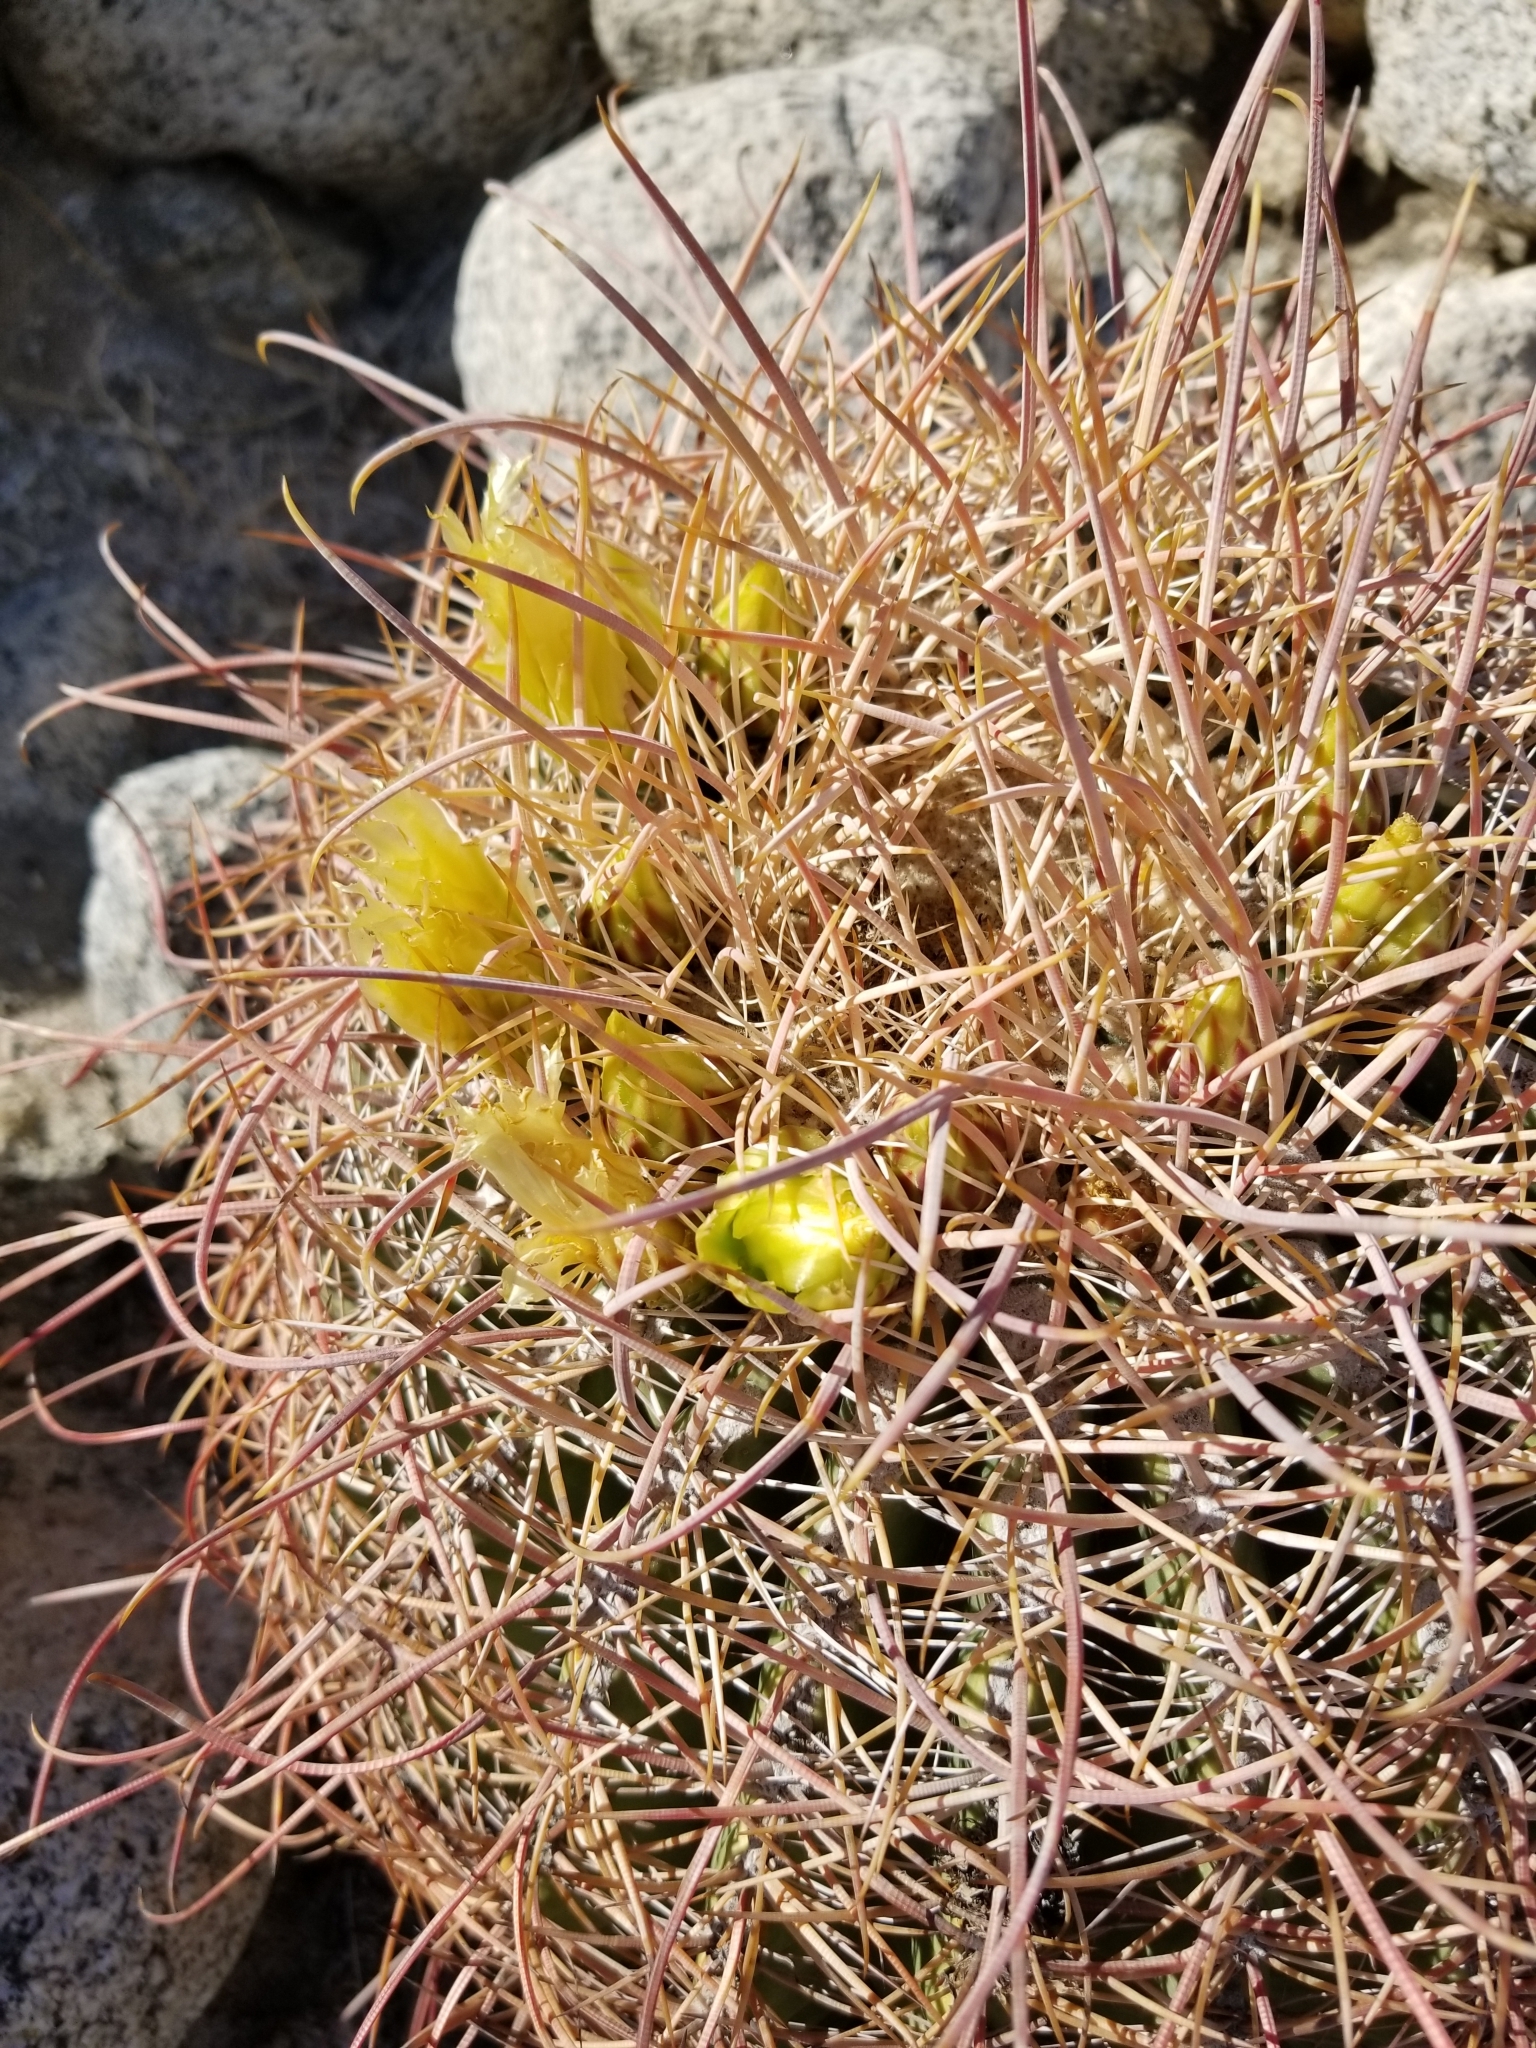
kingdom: Plantae
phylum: Tracheophyta
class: Magnoliopsida
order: Caryophyllales
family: Cactaceae
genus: Ferocactus
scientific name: Ferocactus cylindraceus
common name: California barrel cactus
